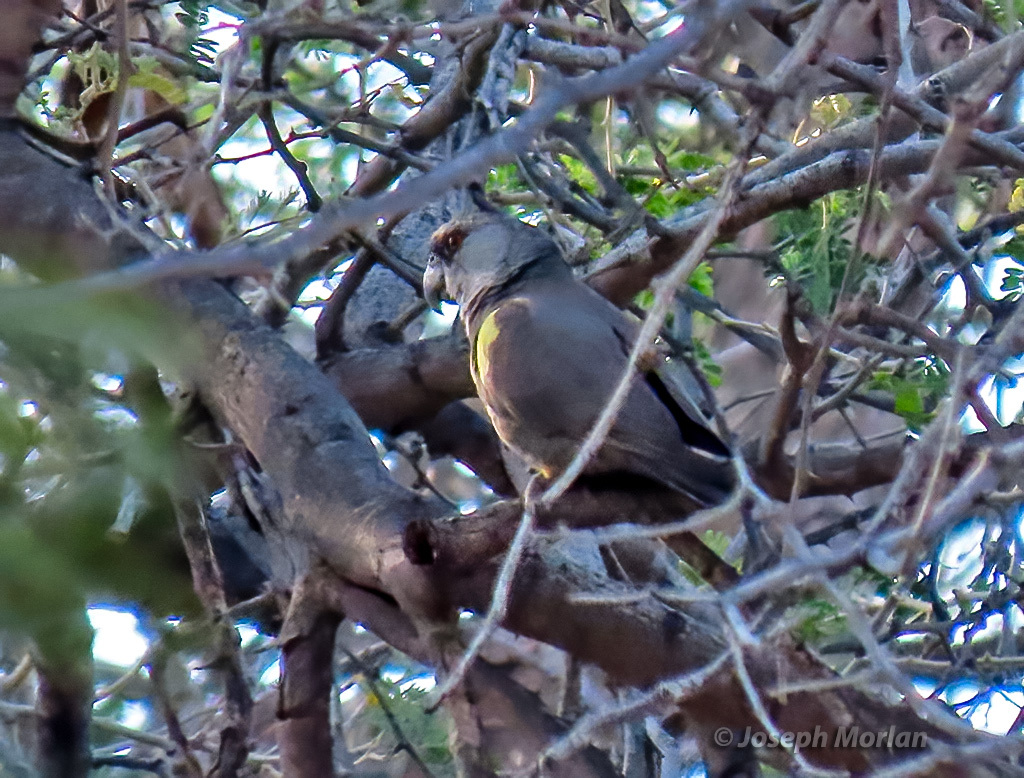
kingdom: Animalia
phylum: Chordata
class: Aves
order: Psittaciformes
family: Psittacidae
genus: Poicephalus
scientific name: Poicephalus rueppellii
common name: Rüppell's parrot
